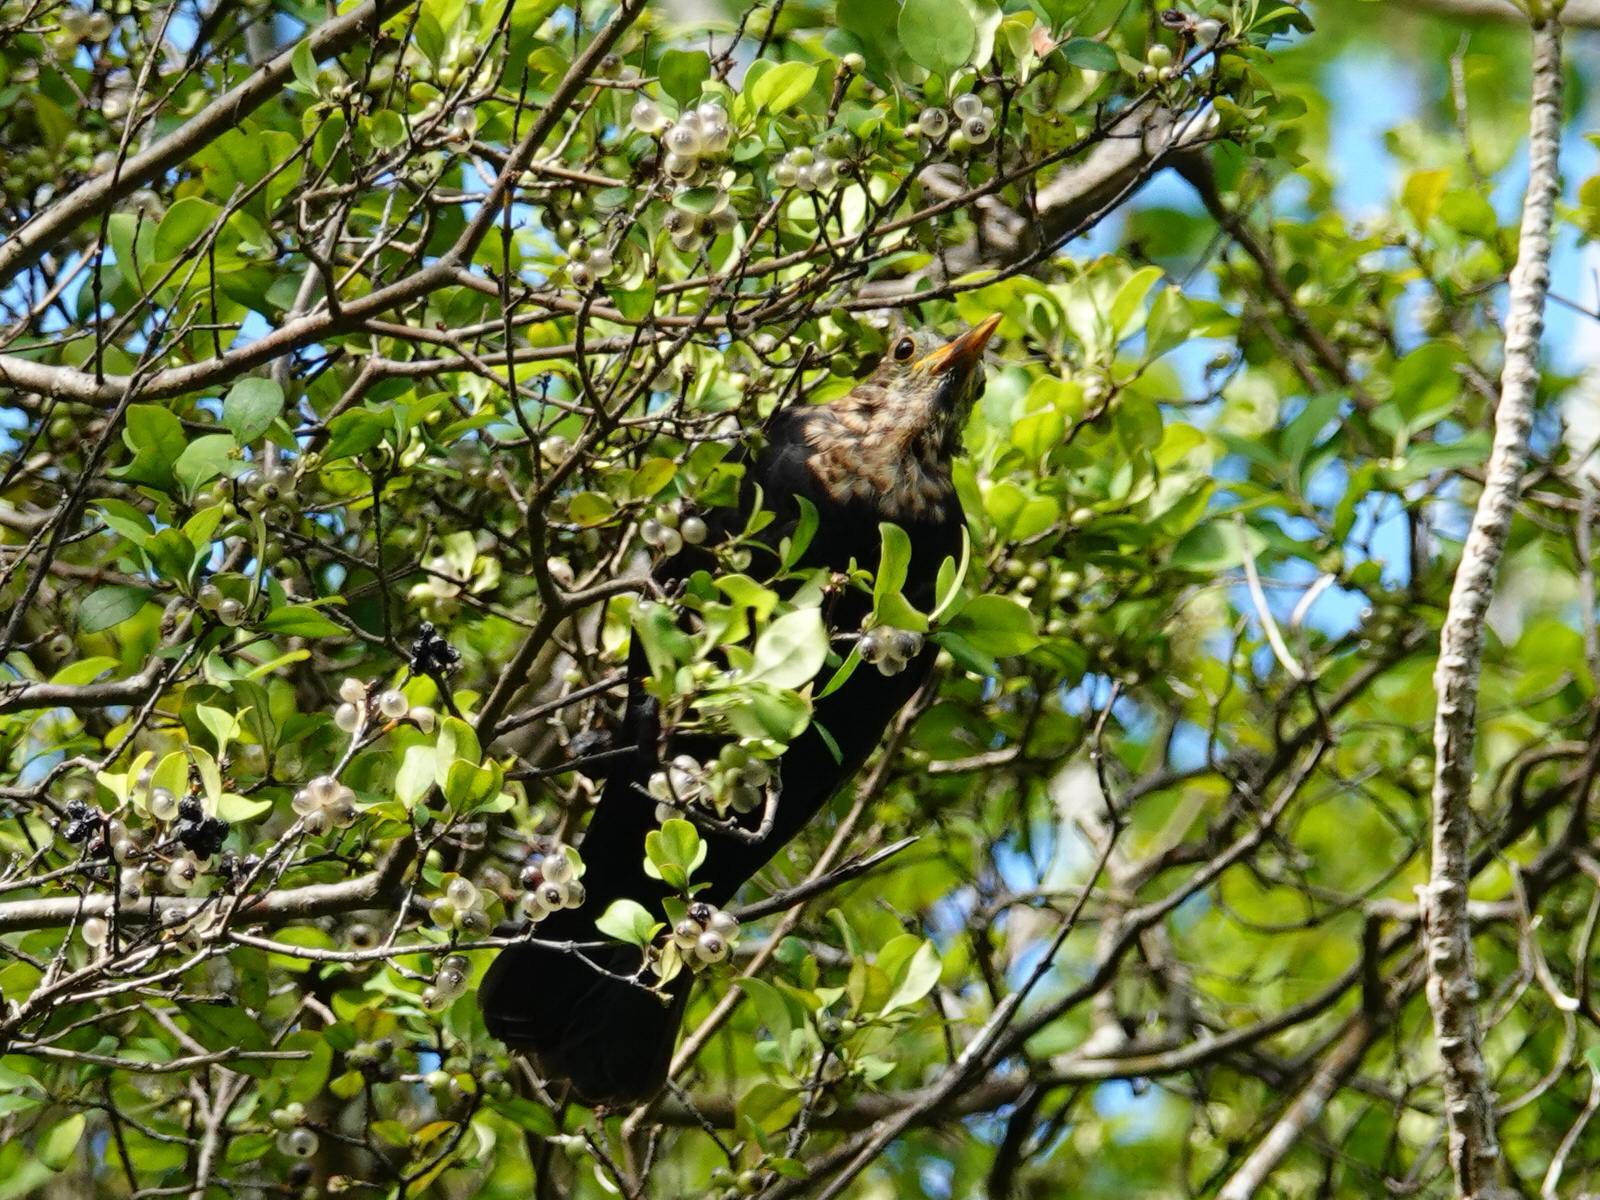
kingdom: Animalia
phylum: Chordata
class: Aves
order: Passeriformes
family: Turdidae
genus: Turdus
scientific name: Turdus merula
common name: Common blackbird
